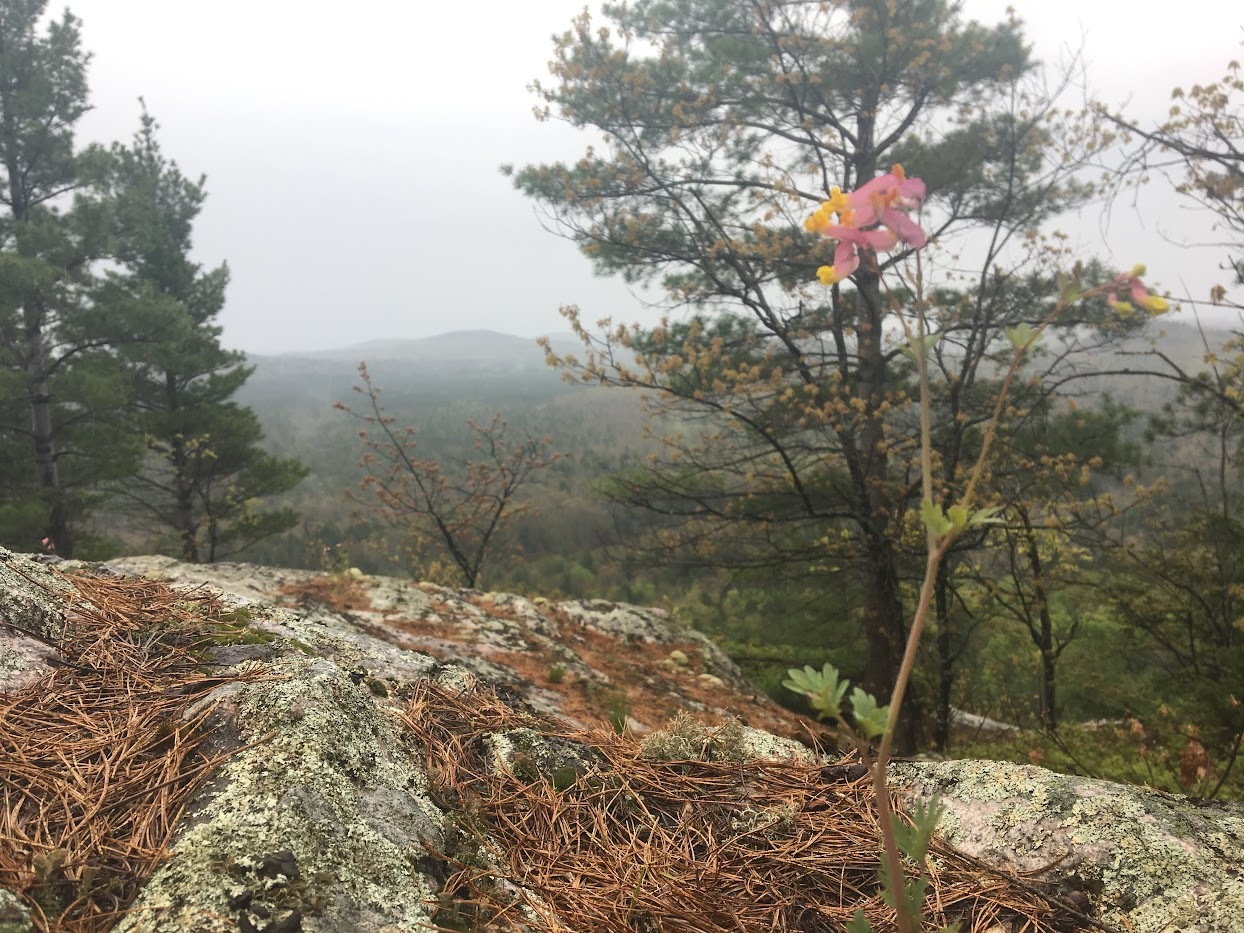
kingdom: Plantae
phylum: Tracheophyta
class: Magnoliopsida
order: Ranunculales
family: Papaveraceae
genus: Capnoides
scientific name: Capnoides sempervirens
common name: Rock harlequin
